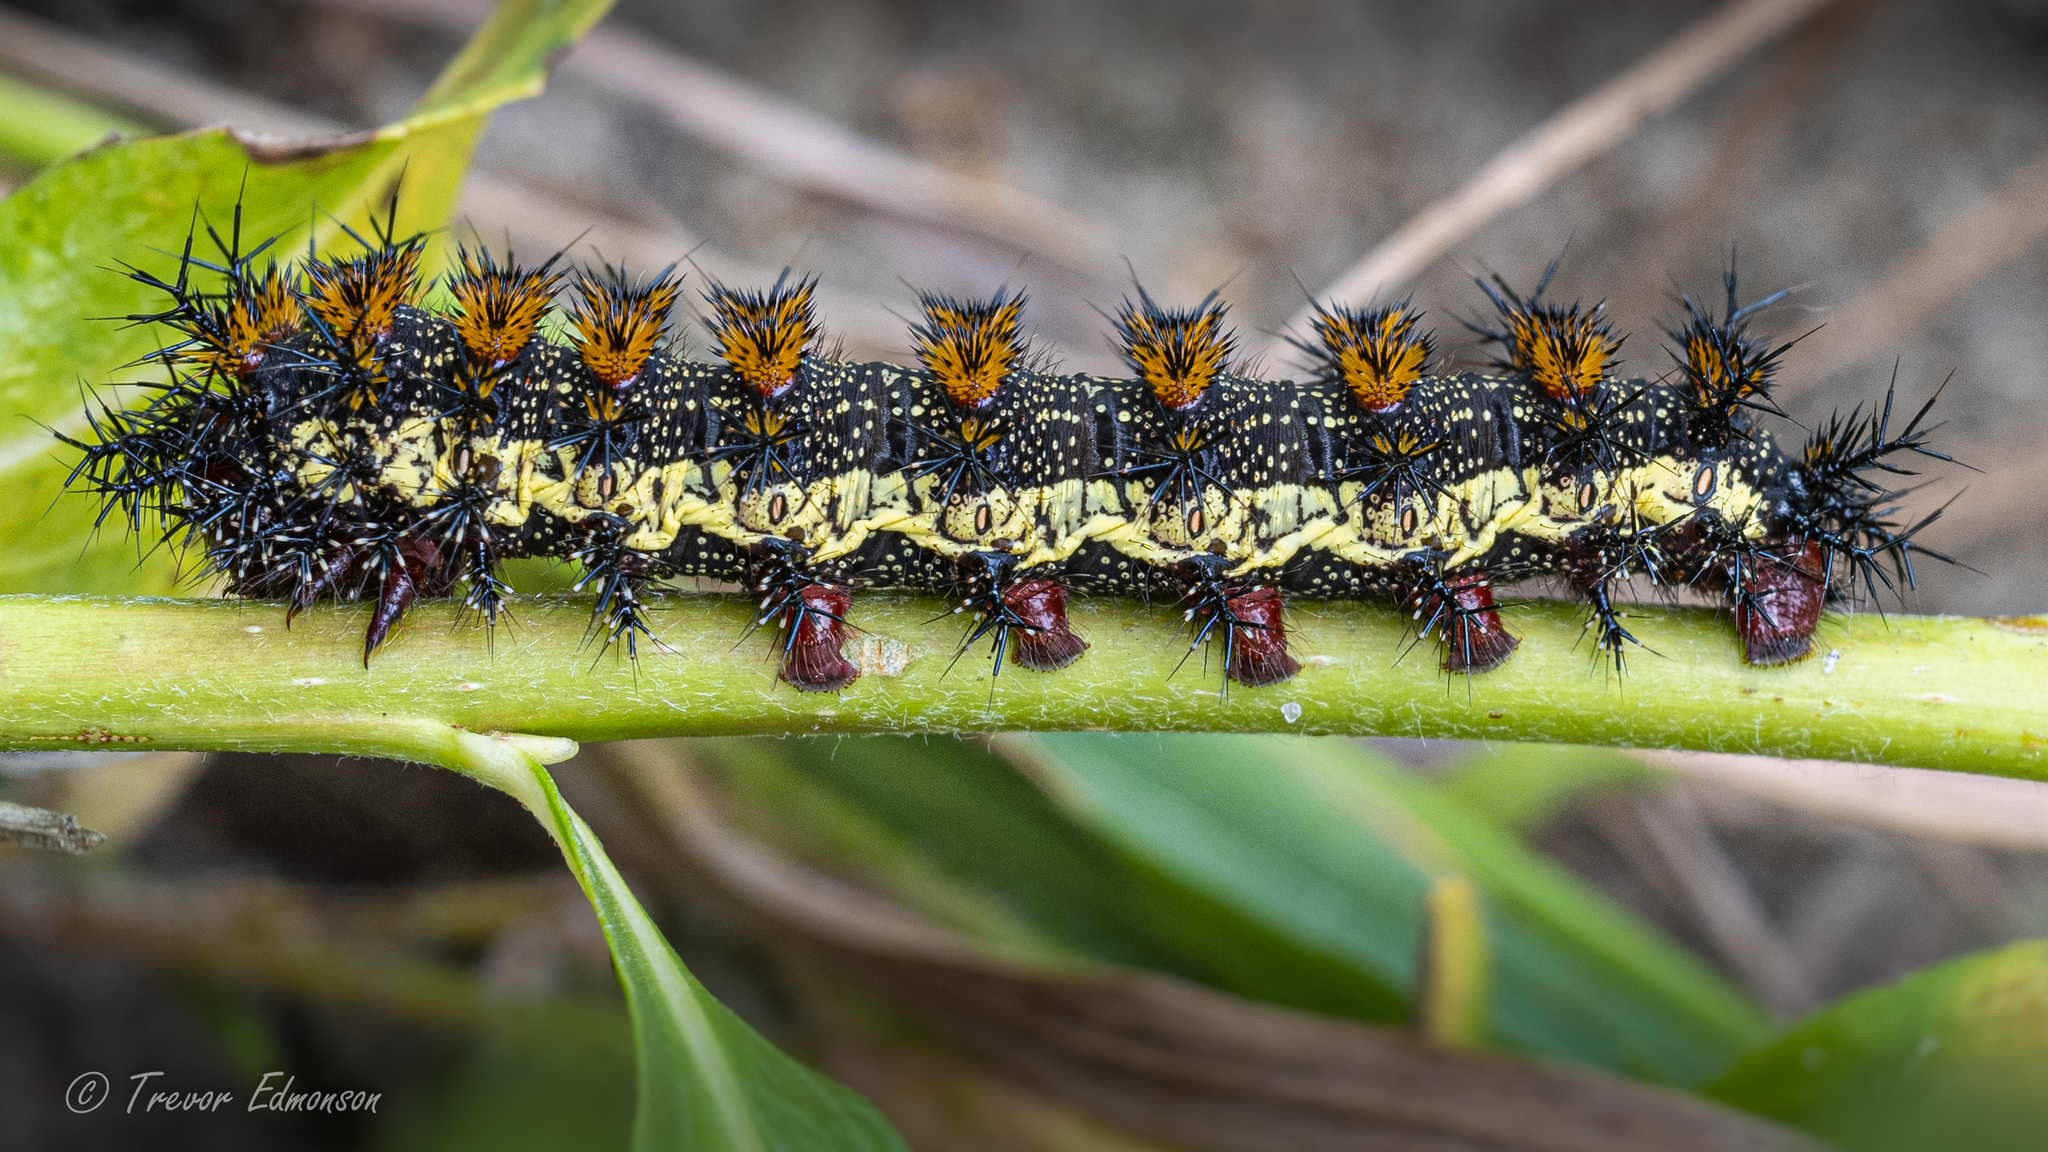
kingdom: Animalia
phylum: Arthropoda
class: Insecta
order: Lepidoptera
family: Saturniidae
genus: Hemileuca
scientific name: Hemileuca nevadensis
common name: Nevada buckmoth
